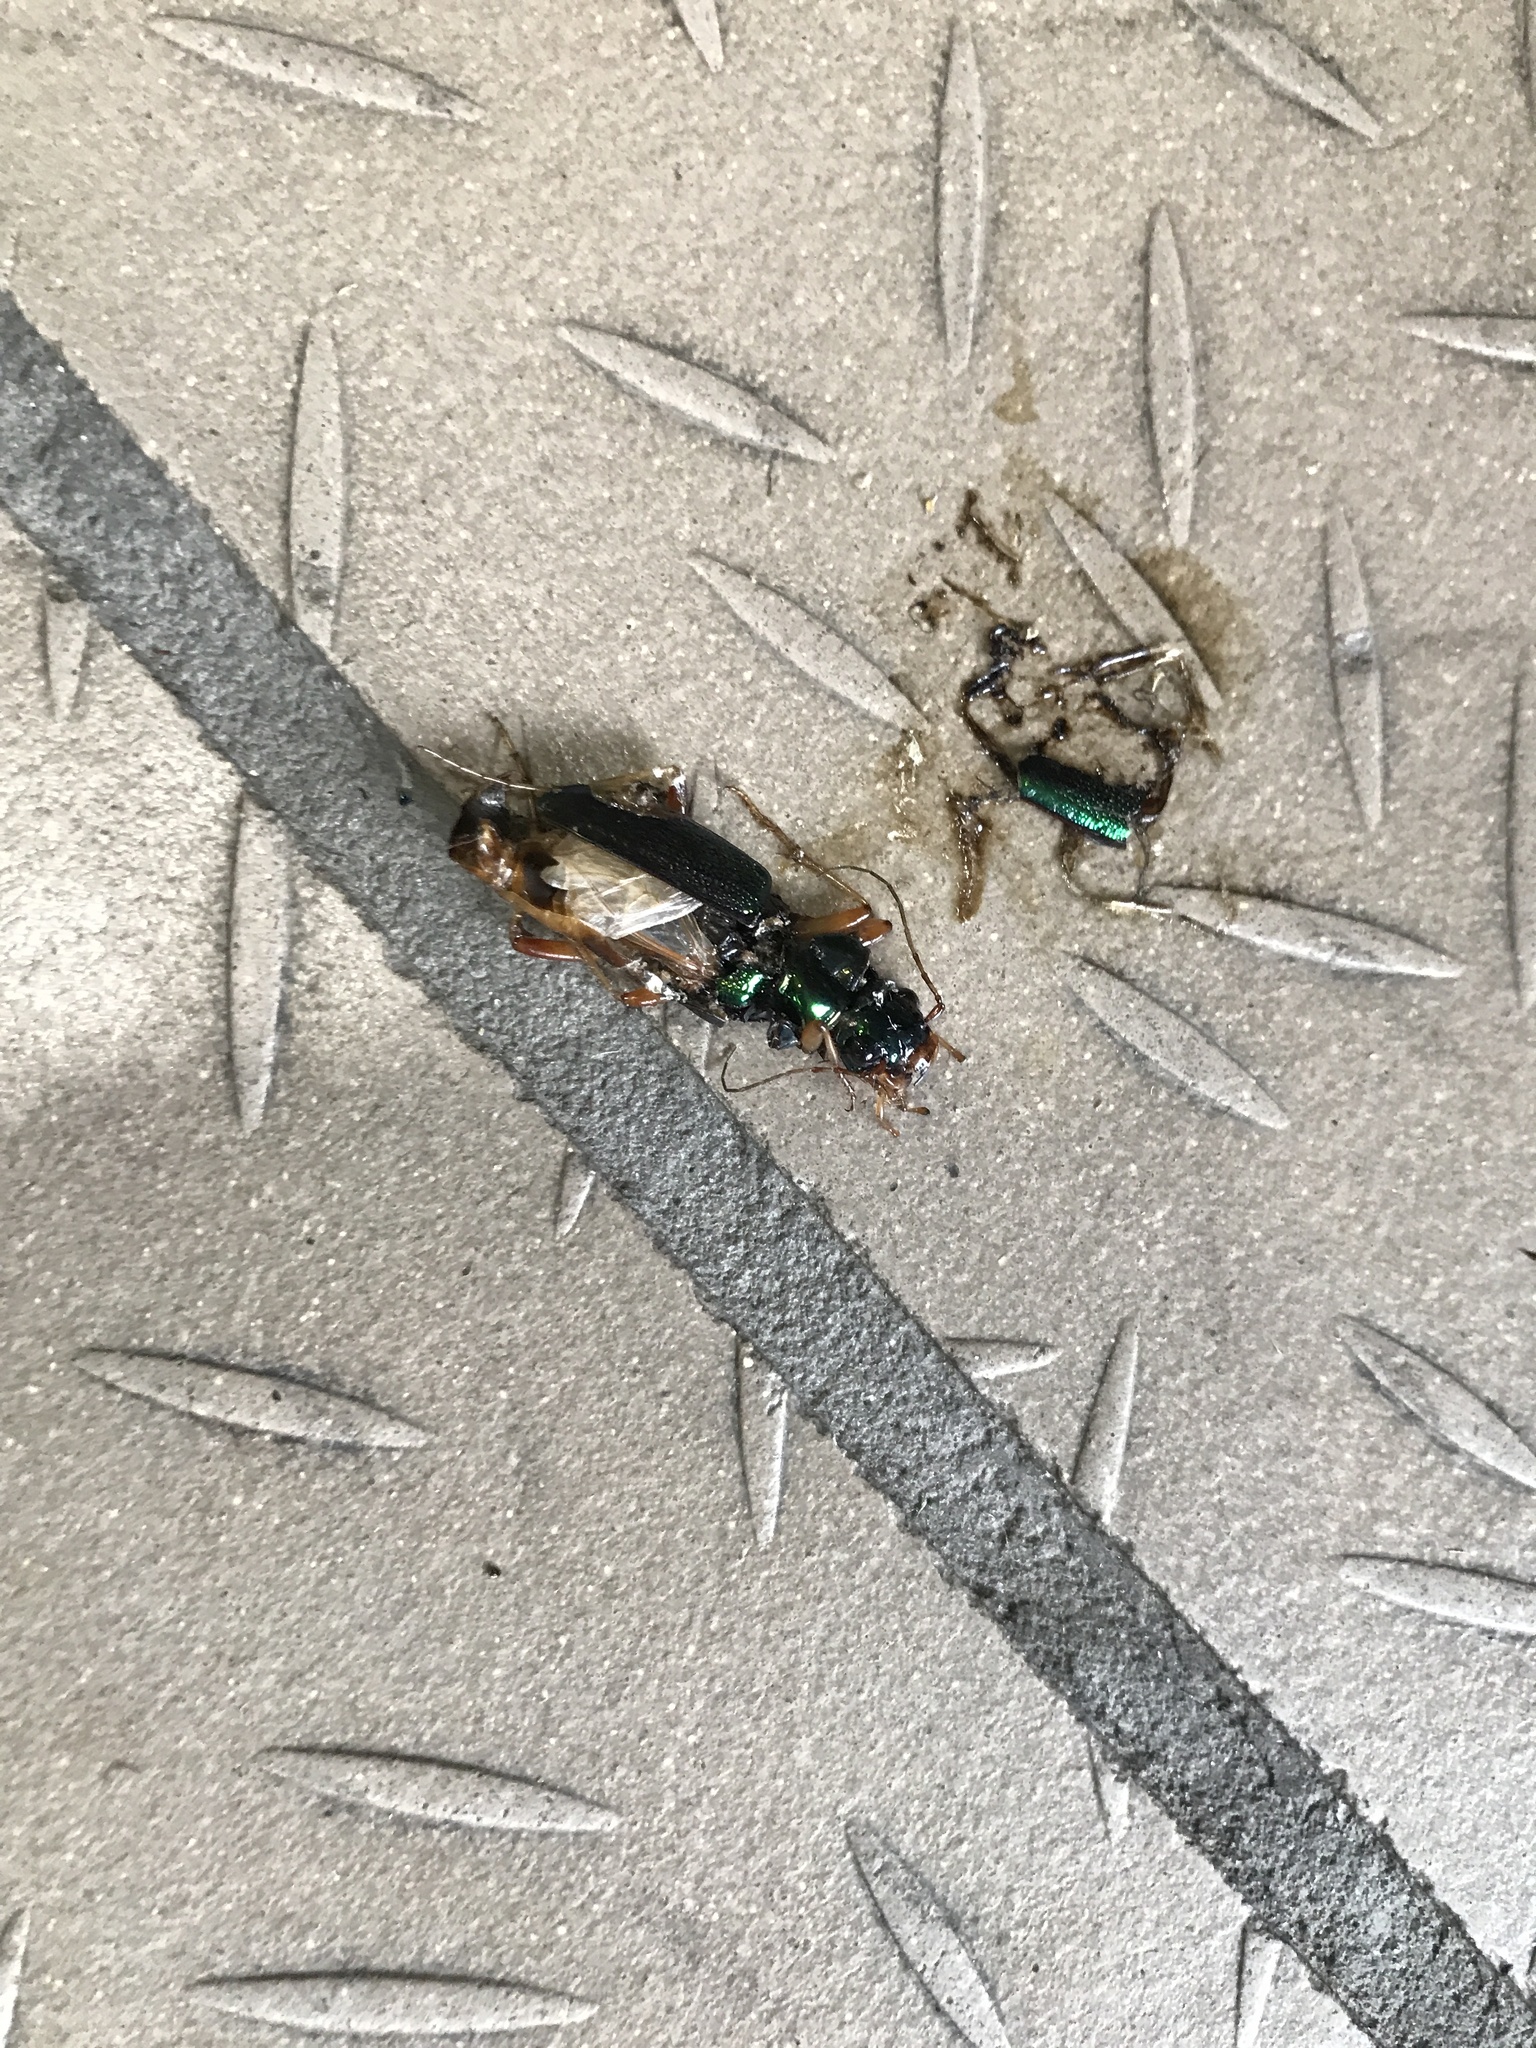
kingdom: Animalia
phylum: Arthropoda
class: Insecta
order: Coleoptera
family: Carabidae
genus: Tetracha
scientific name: Tetracha virginica
